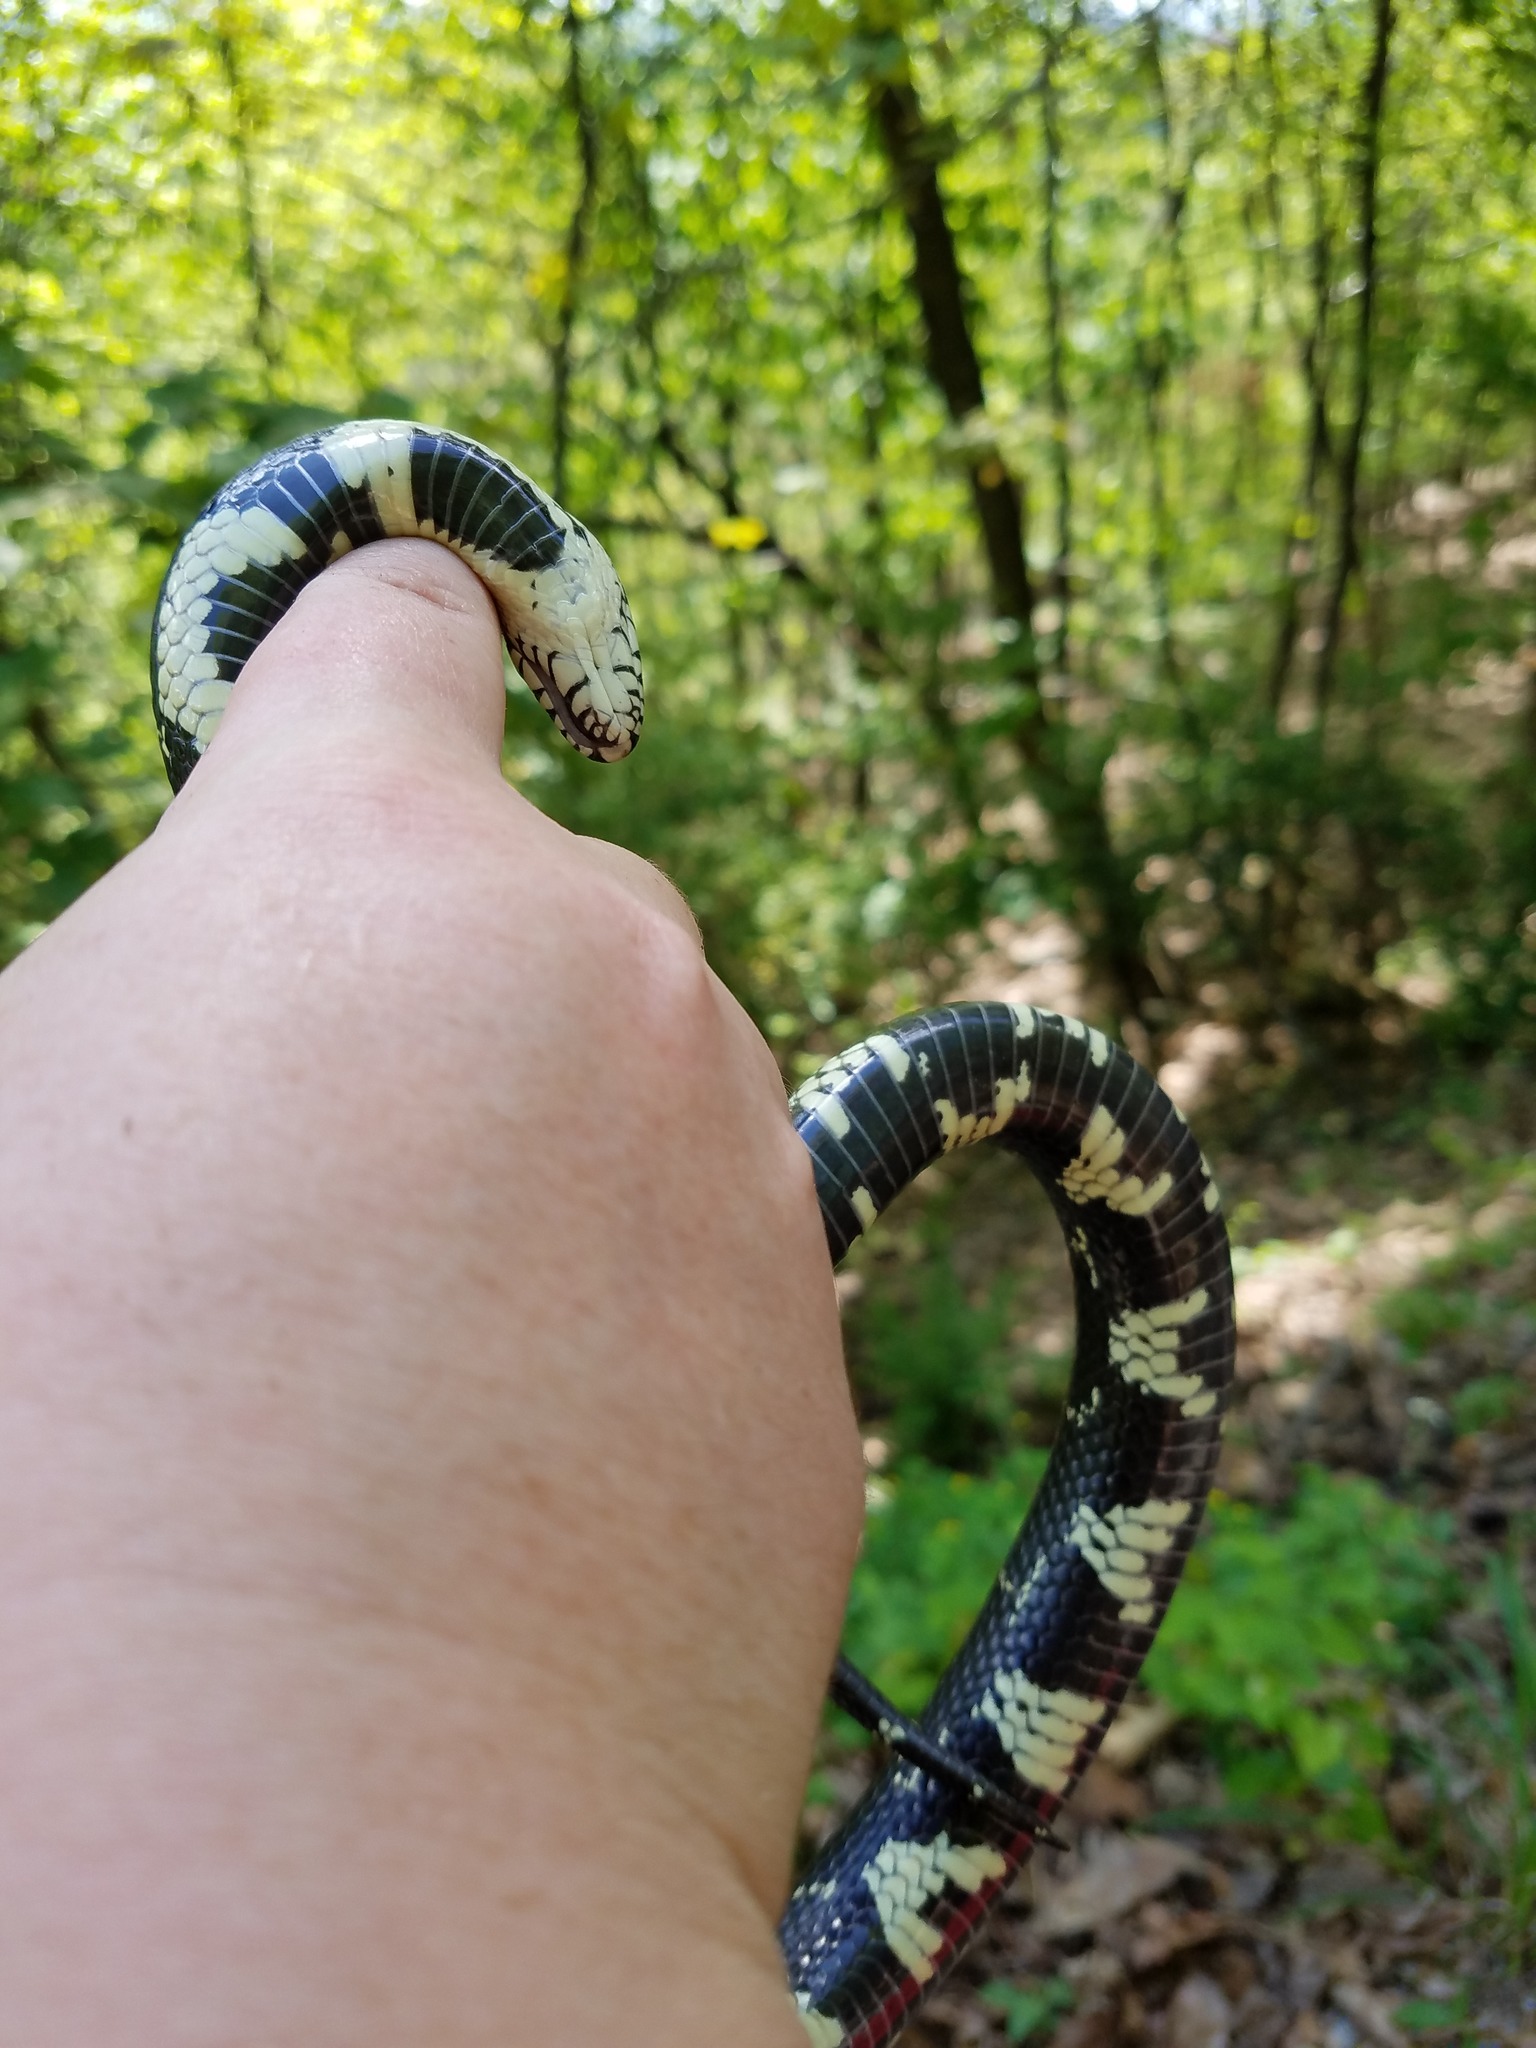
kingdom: Animalia
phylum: Chordata
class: Squamata
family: Colubridae
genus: Lampropeltis
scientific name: Lampropeltis getula
